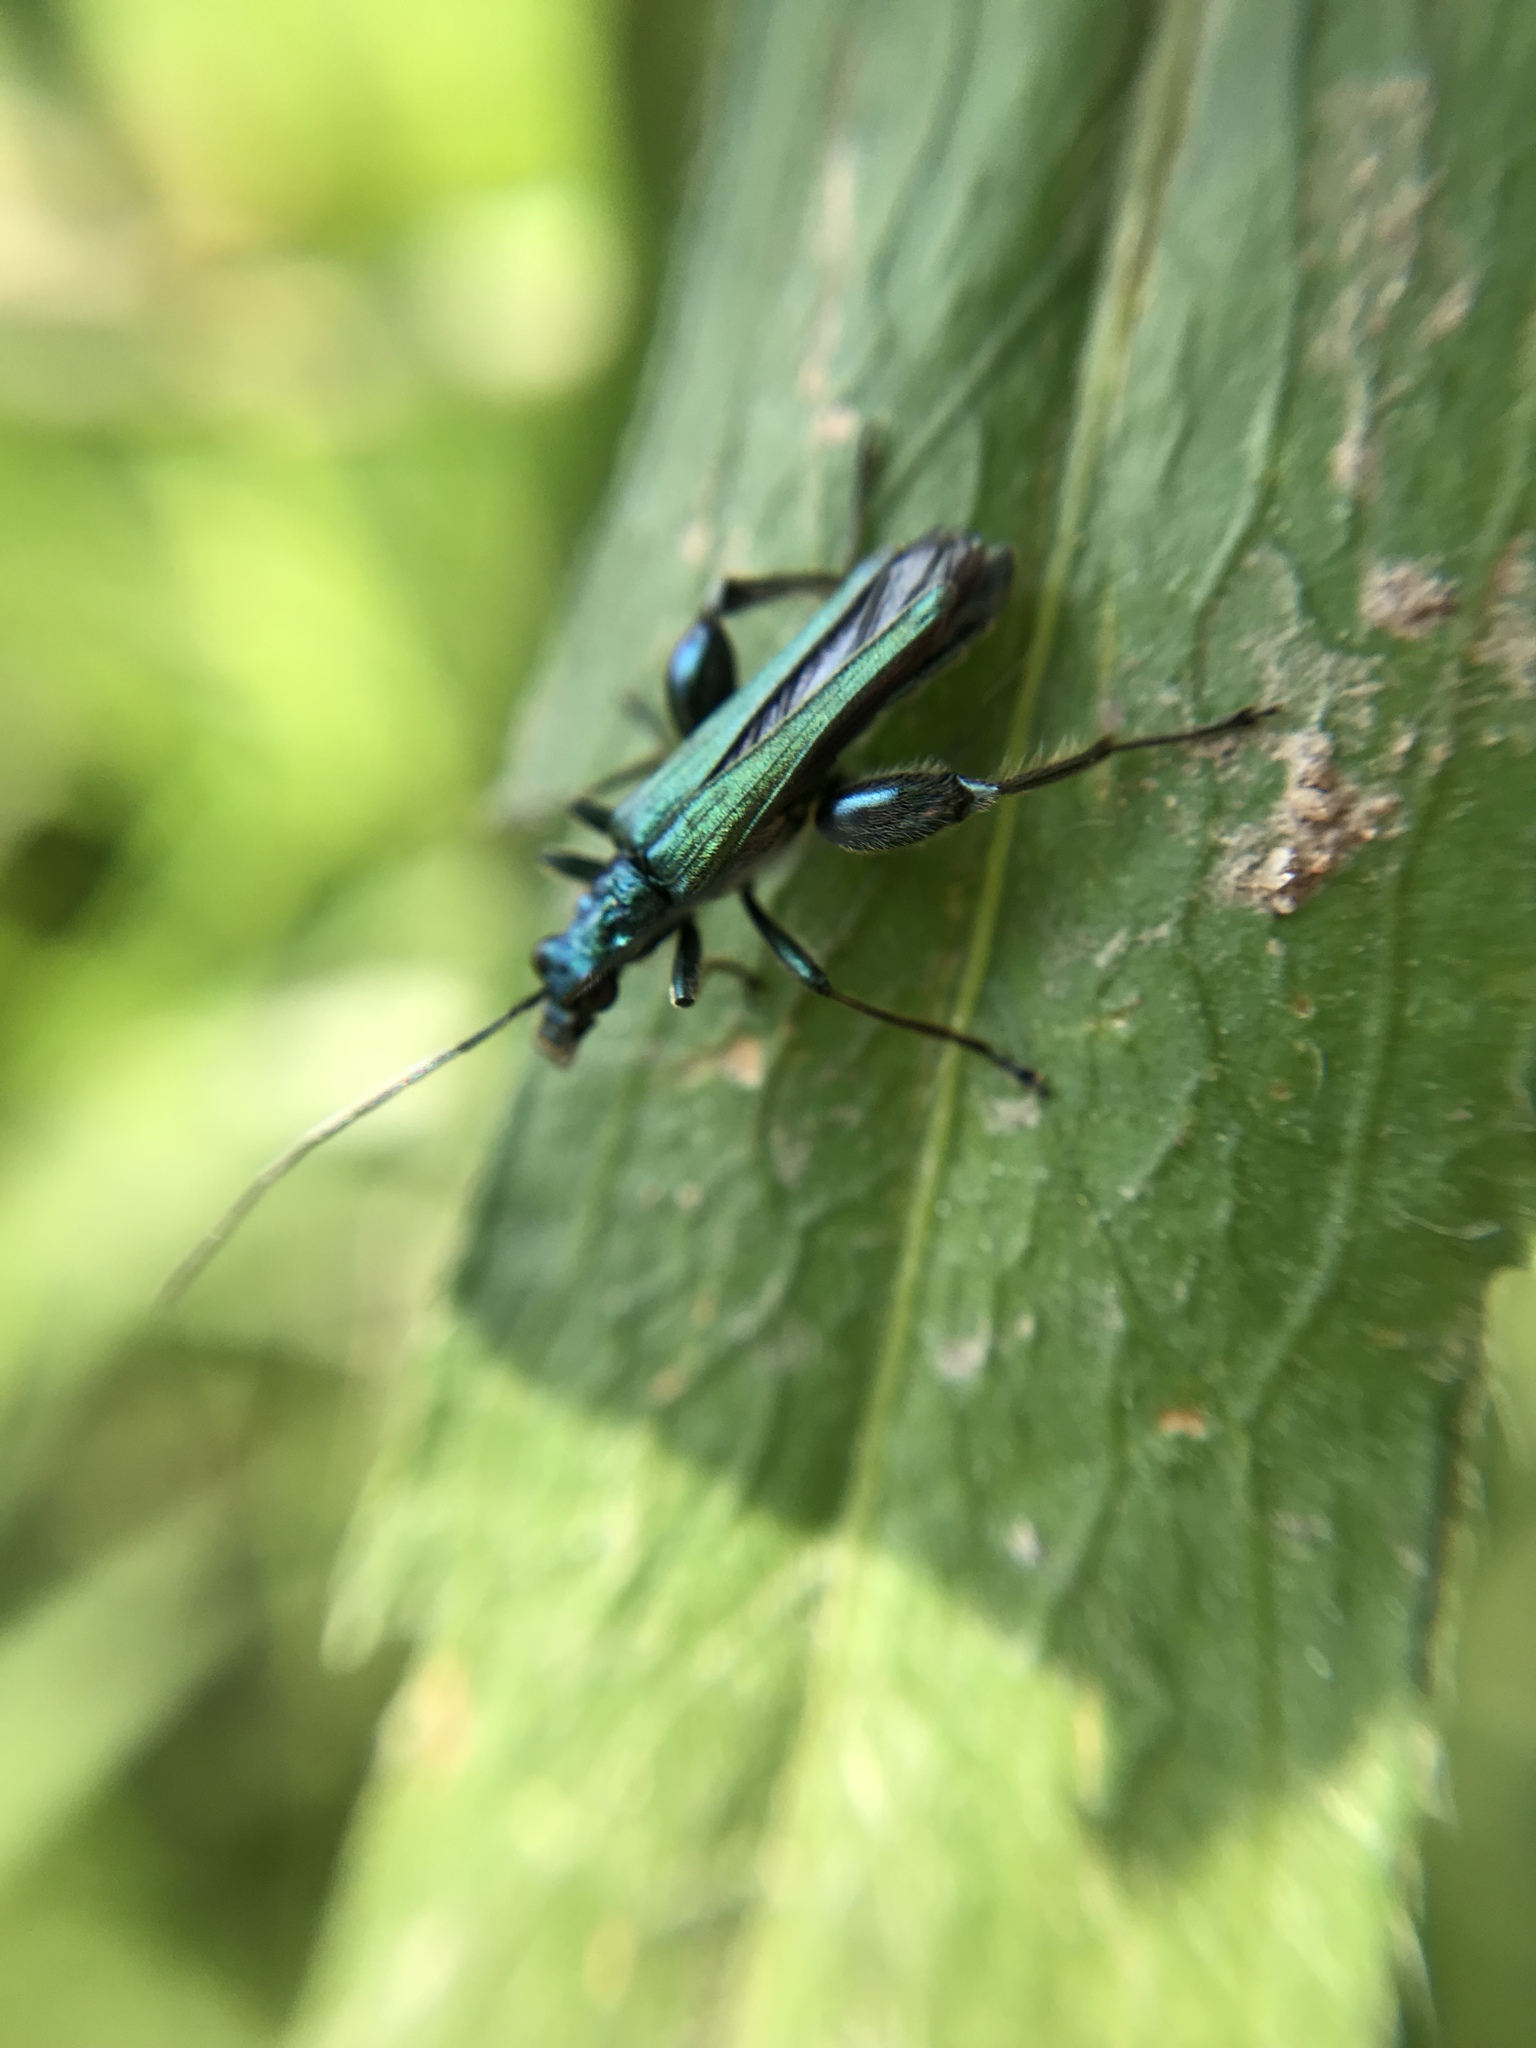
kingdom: Animalia
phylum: Arthropoda
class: Insecta
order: Coleoptera
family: Oedemeridae
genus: Oedemera
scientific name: Oedemera nobilis
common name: Swollen-thighed beetle
